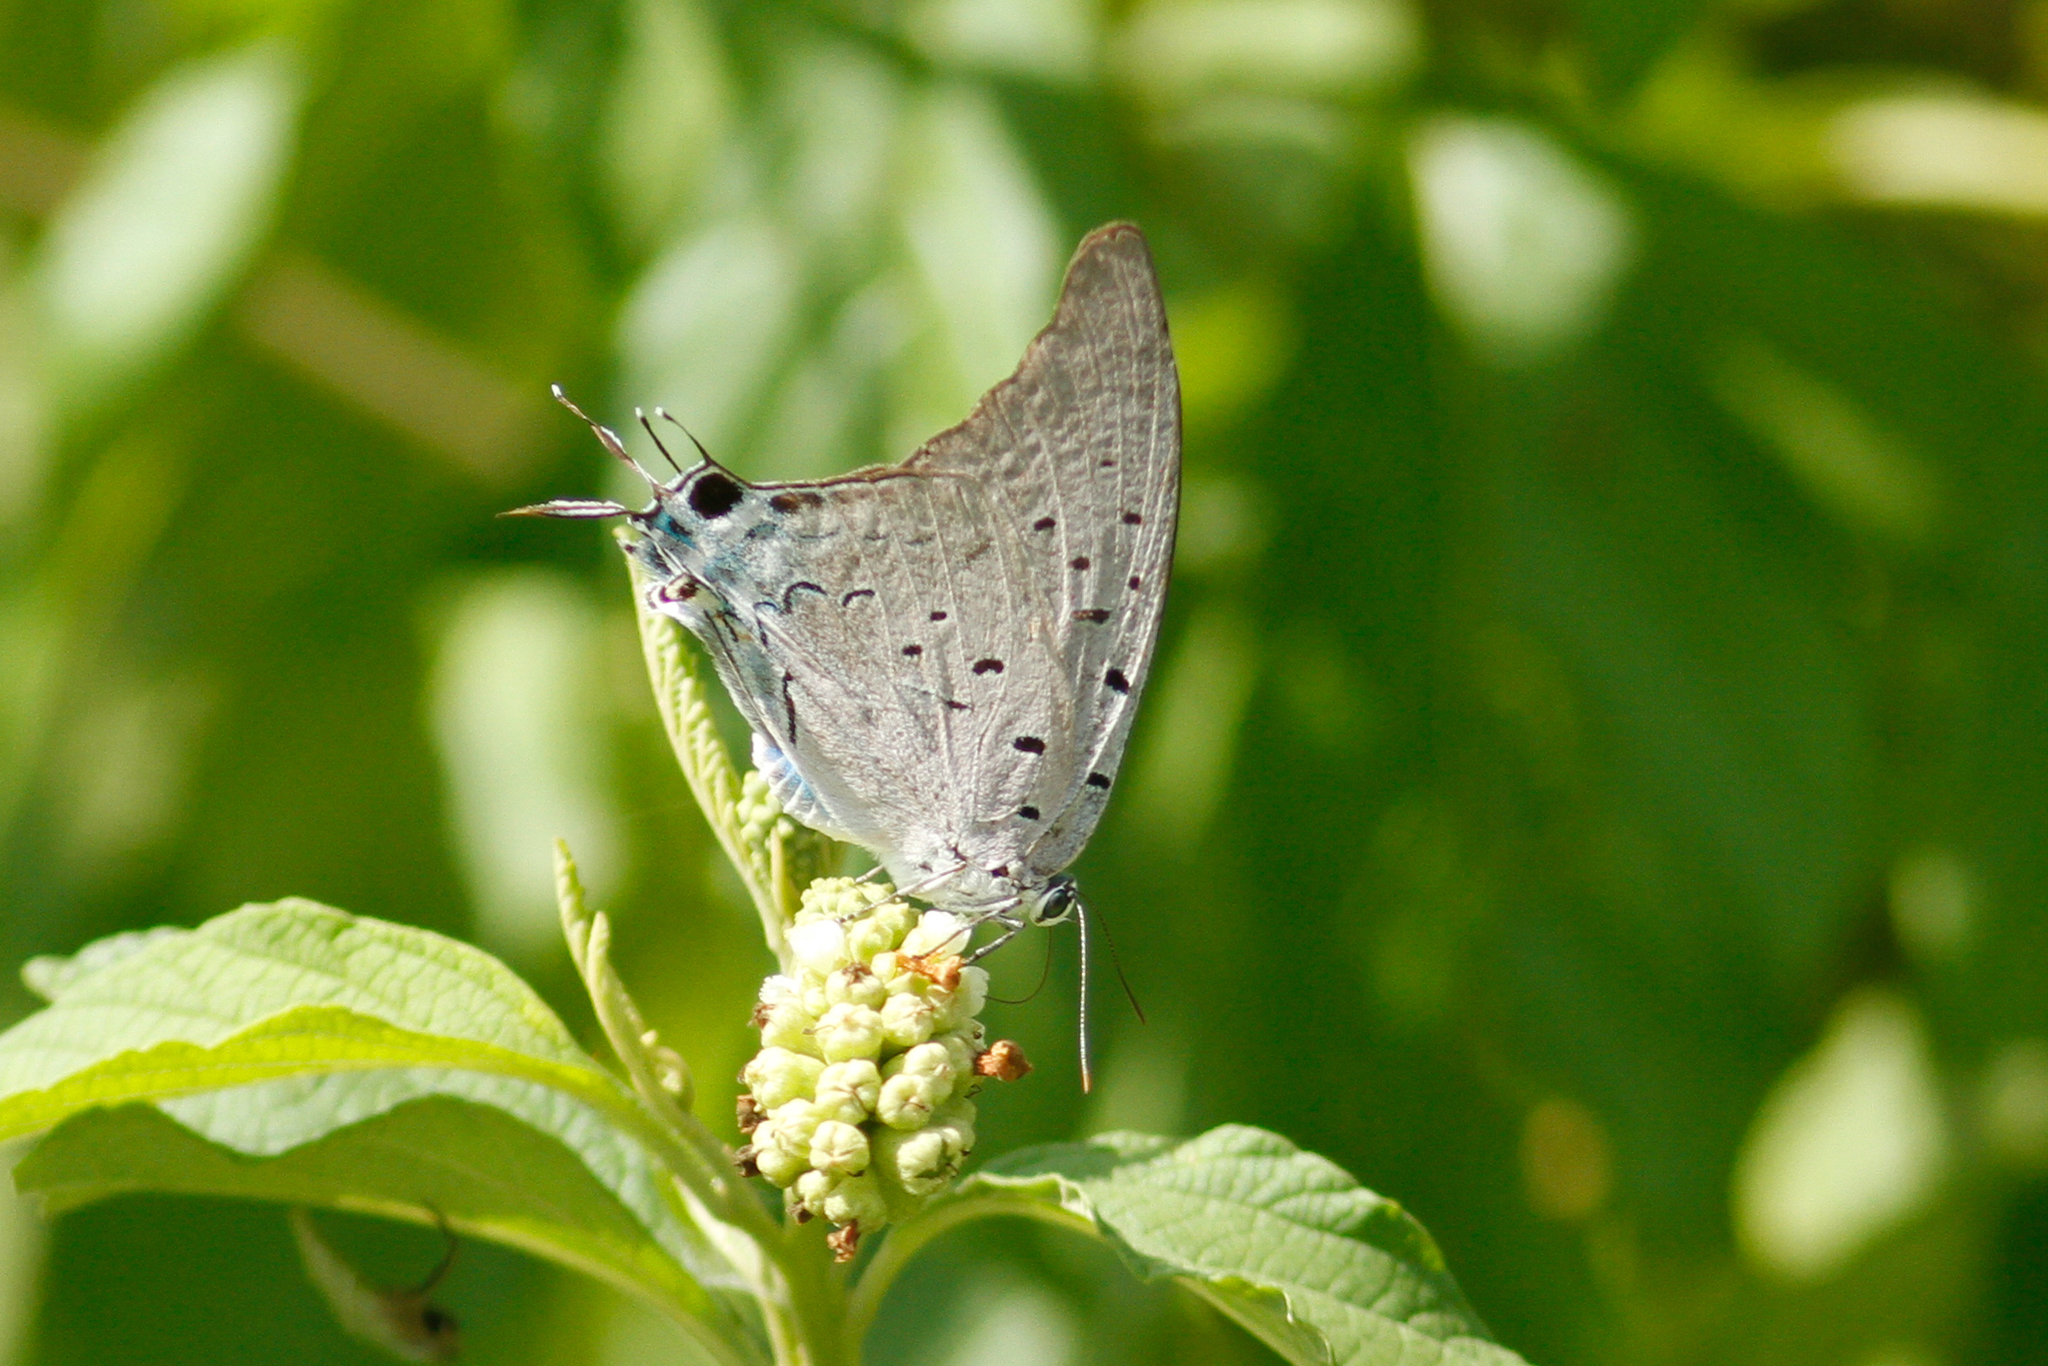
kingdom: Animalia
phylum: Arthropoda
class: Insecta
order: Lepidoptera
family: Lycaenidae
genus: Pseudolycaena
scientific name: Pseudolycaena damo
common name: Sky-blue hairstreak
